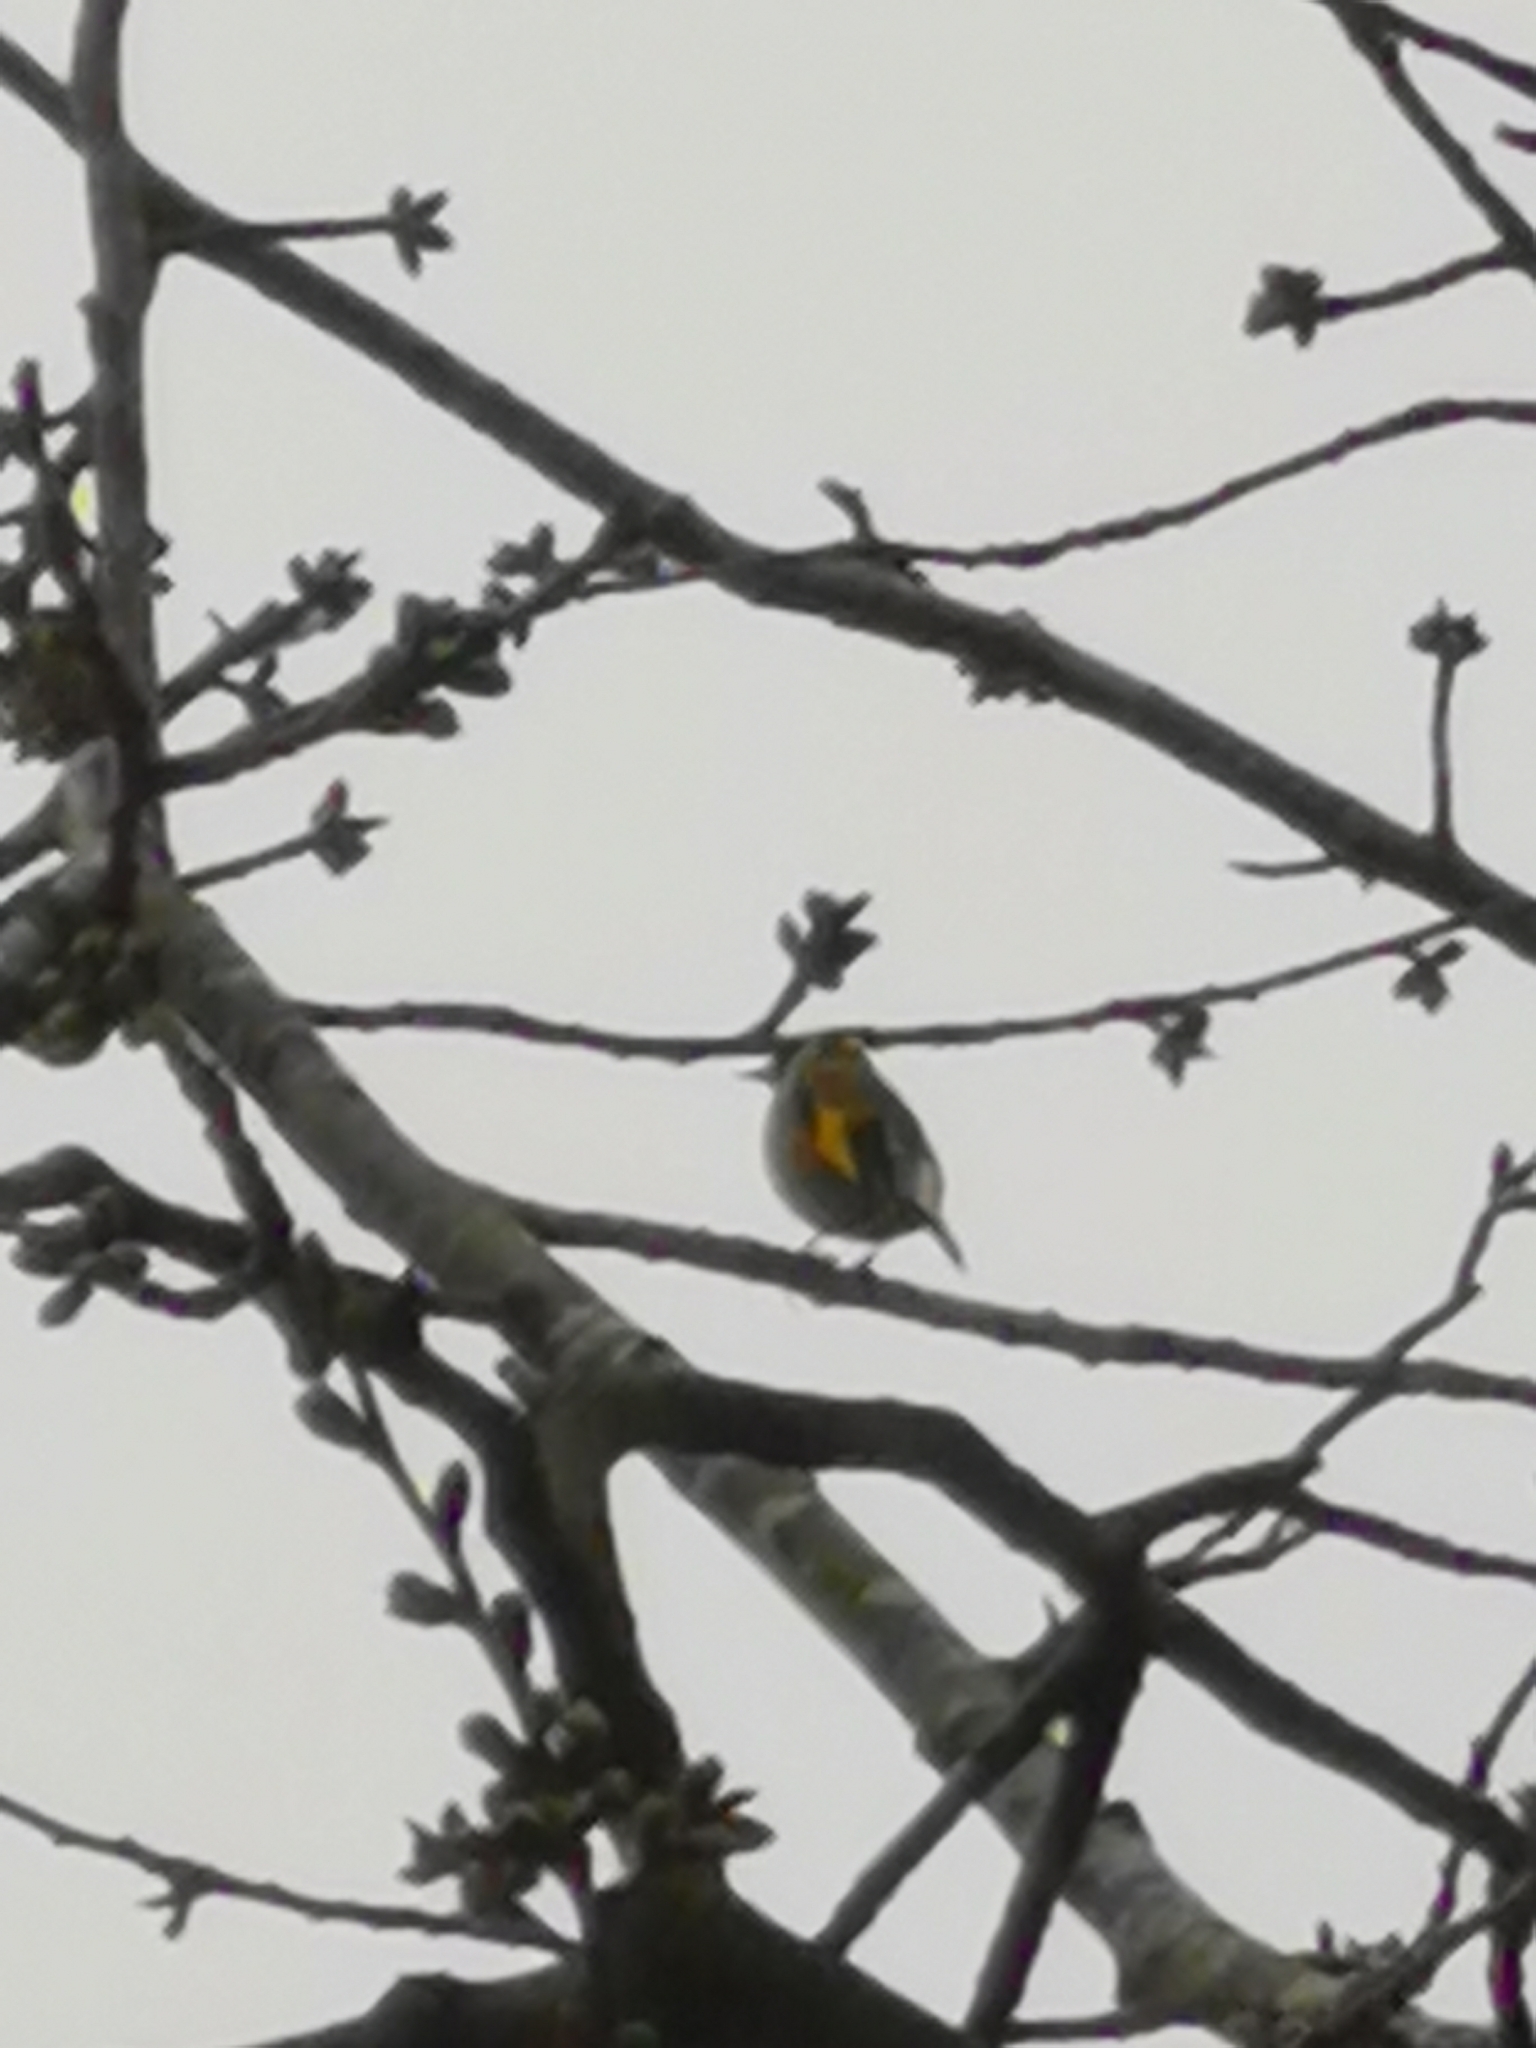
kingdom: Animalia
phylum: Chordata
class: Aves
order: Passeriformes
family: Fringillidae
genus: Carduelis
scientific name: Carduelis carduelis
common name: European goldfinch
